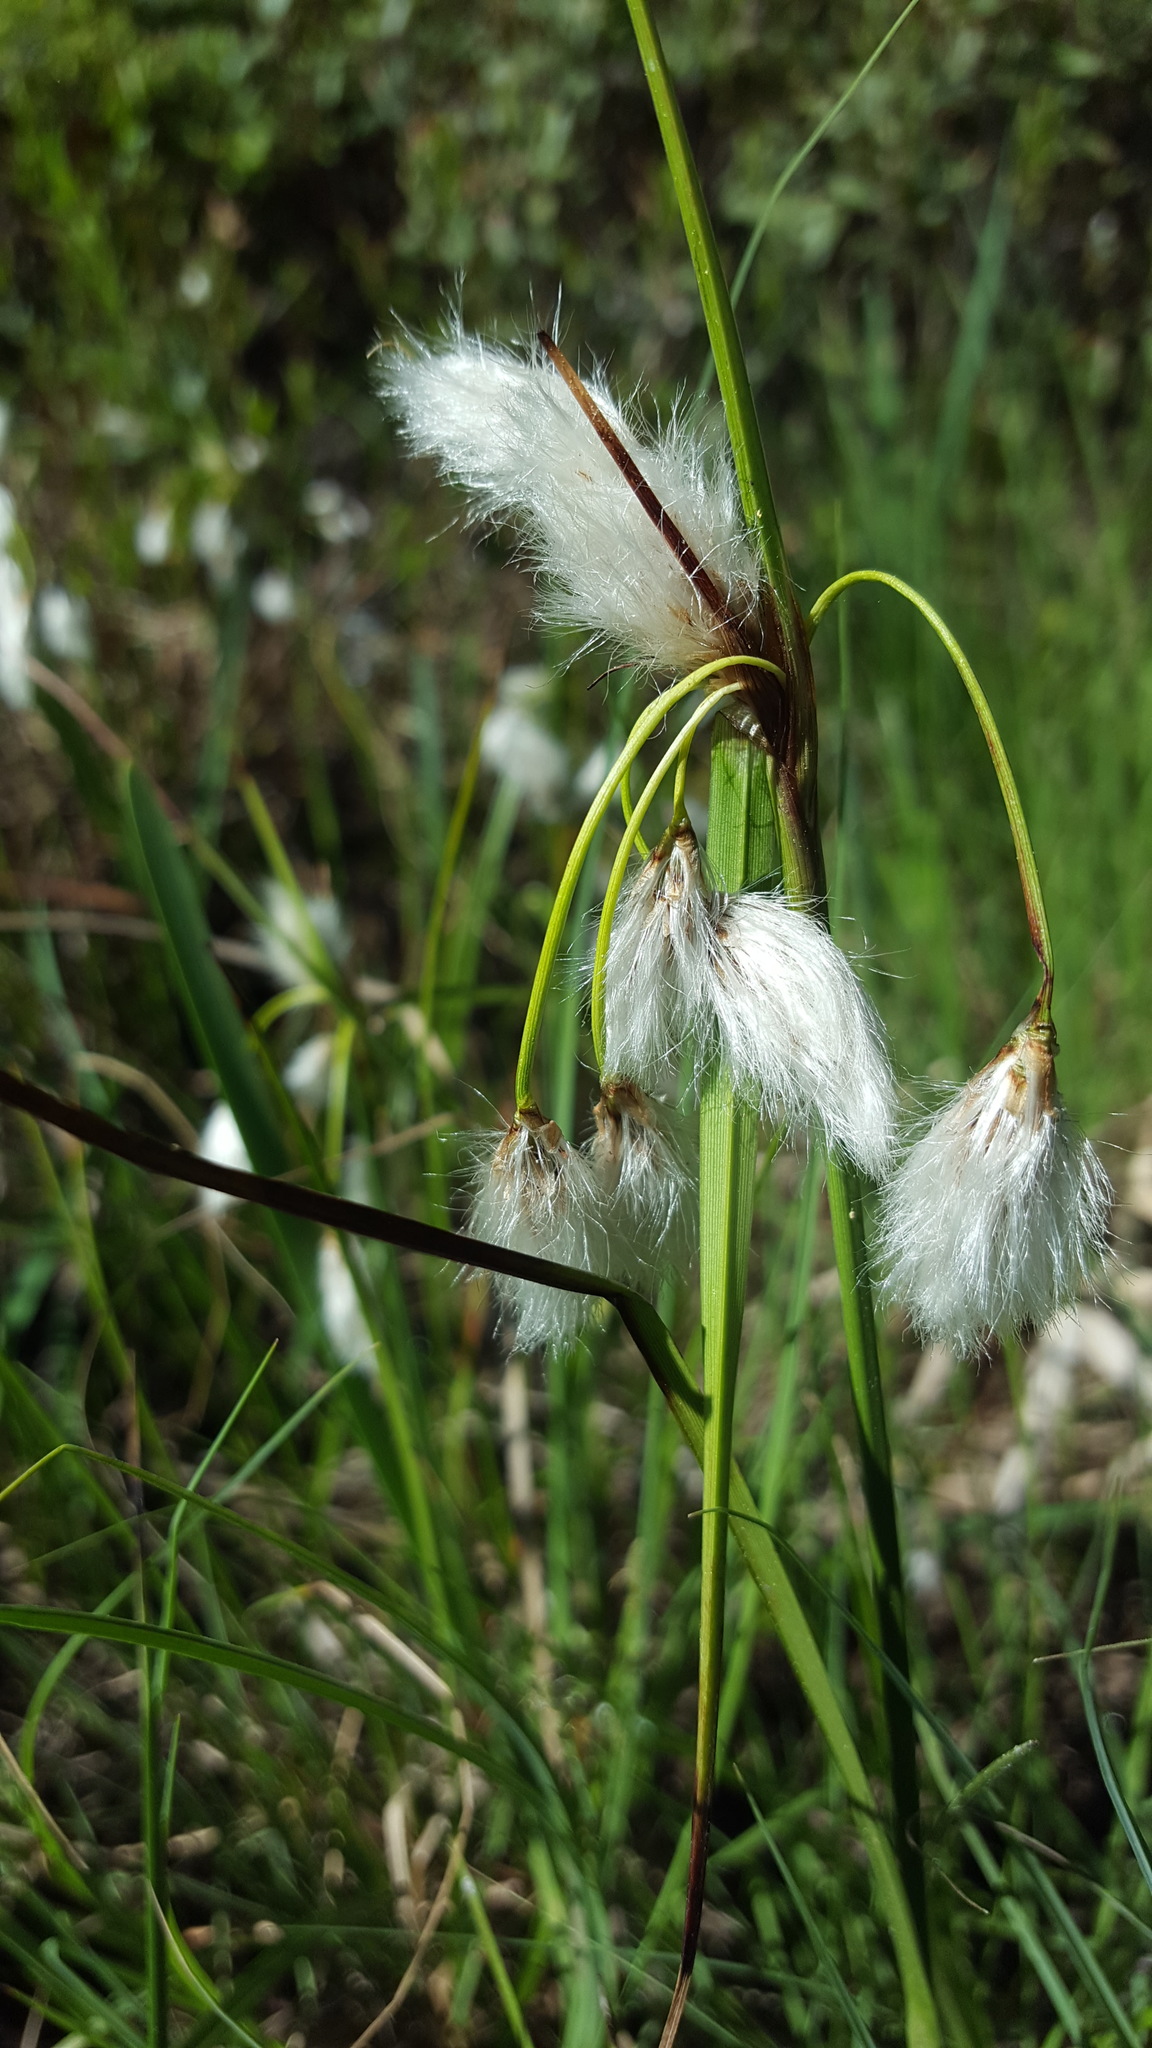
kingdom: Plantae
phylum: Tracheophyta
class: Liliopsida
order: Poales
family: Cyperaceae
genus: Eriophorum
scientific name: Eriophorum angustifolium
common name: Common cottongrass
